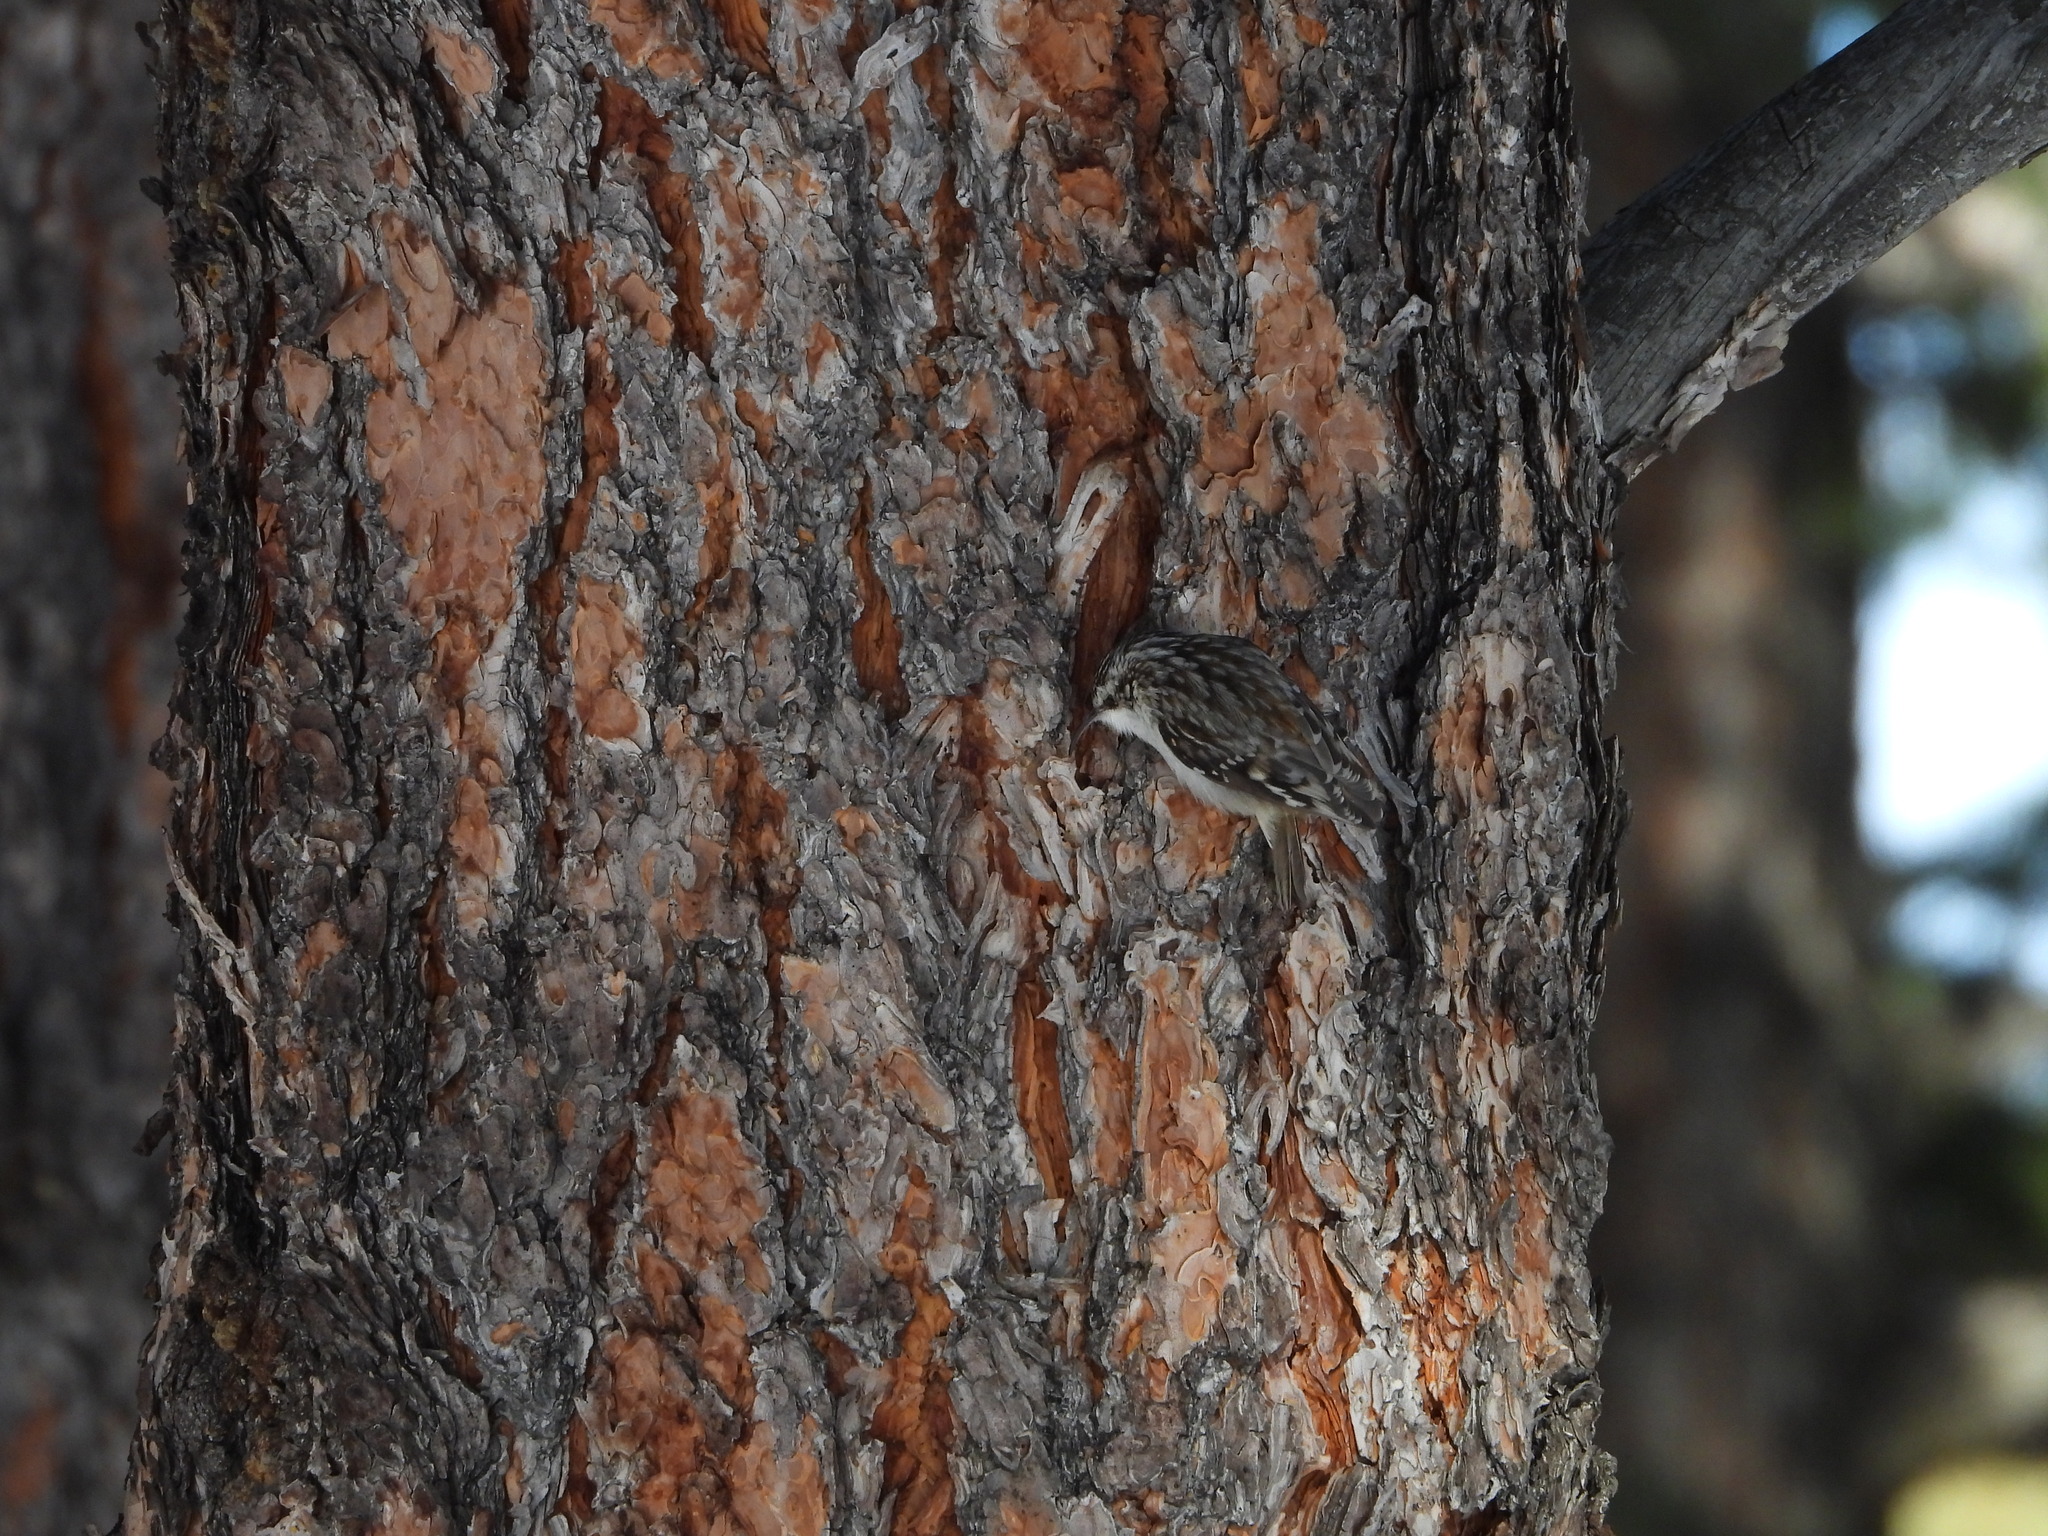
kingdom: Animalia
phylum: Chordata
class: Aves
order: Passeriformes
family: Certhiidae
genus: Certhia
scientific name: Certhia americana
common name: Brown creeper
